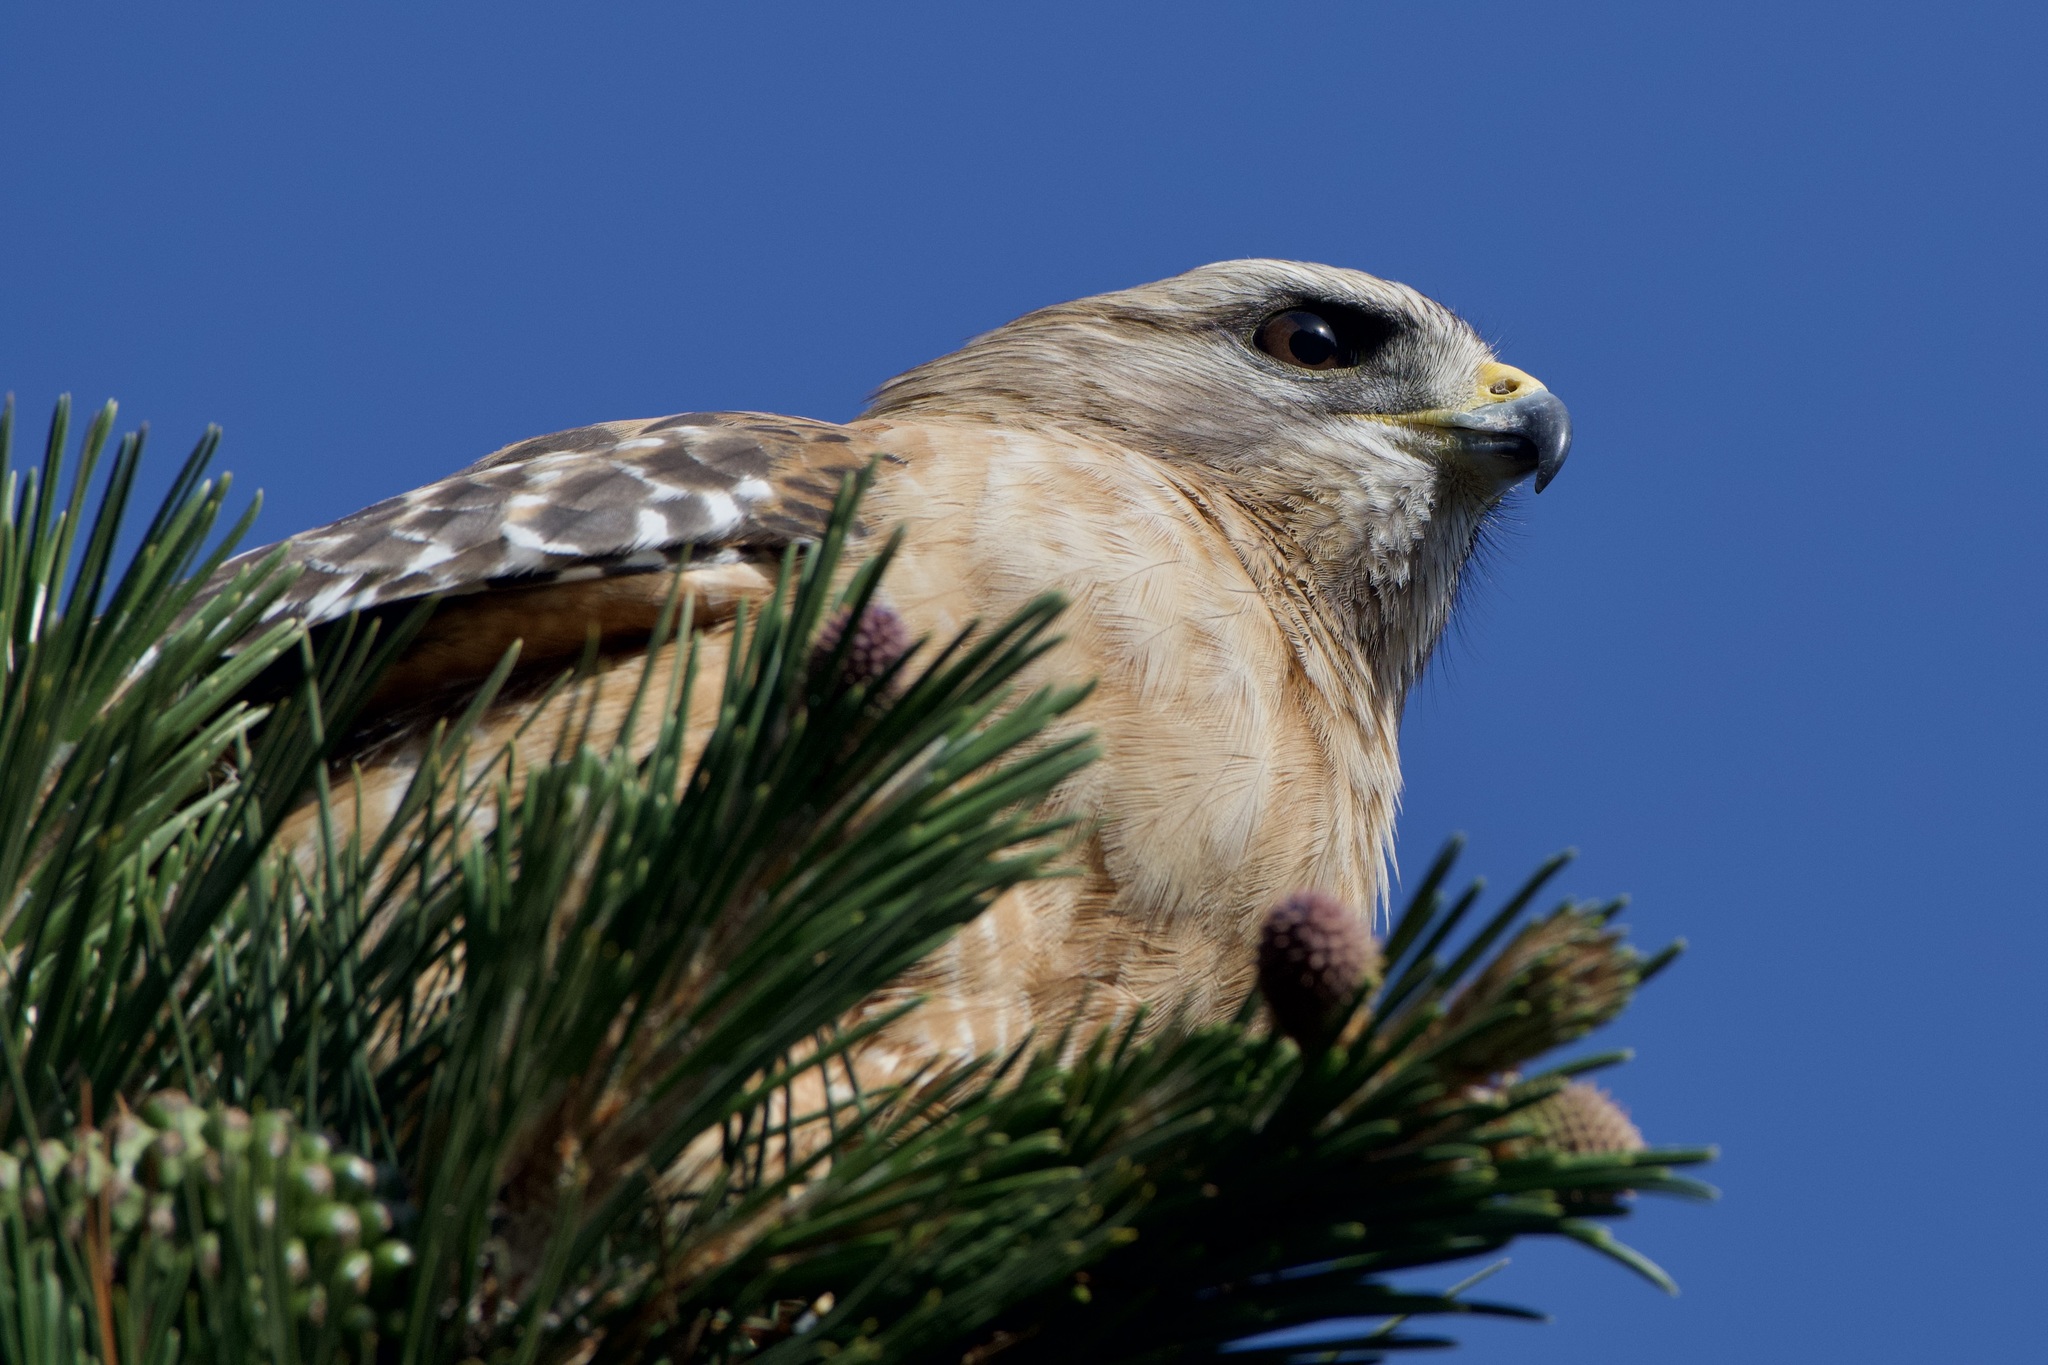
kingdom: Animalia
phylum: Chordata
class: Aves
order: Accipitriformes
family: Accipitridae
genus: Buteo
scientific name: Buteo lineatus
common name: Red-shouldered hawk
